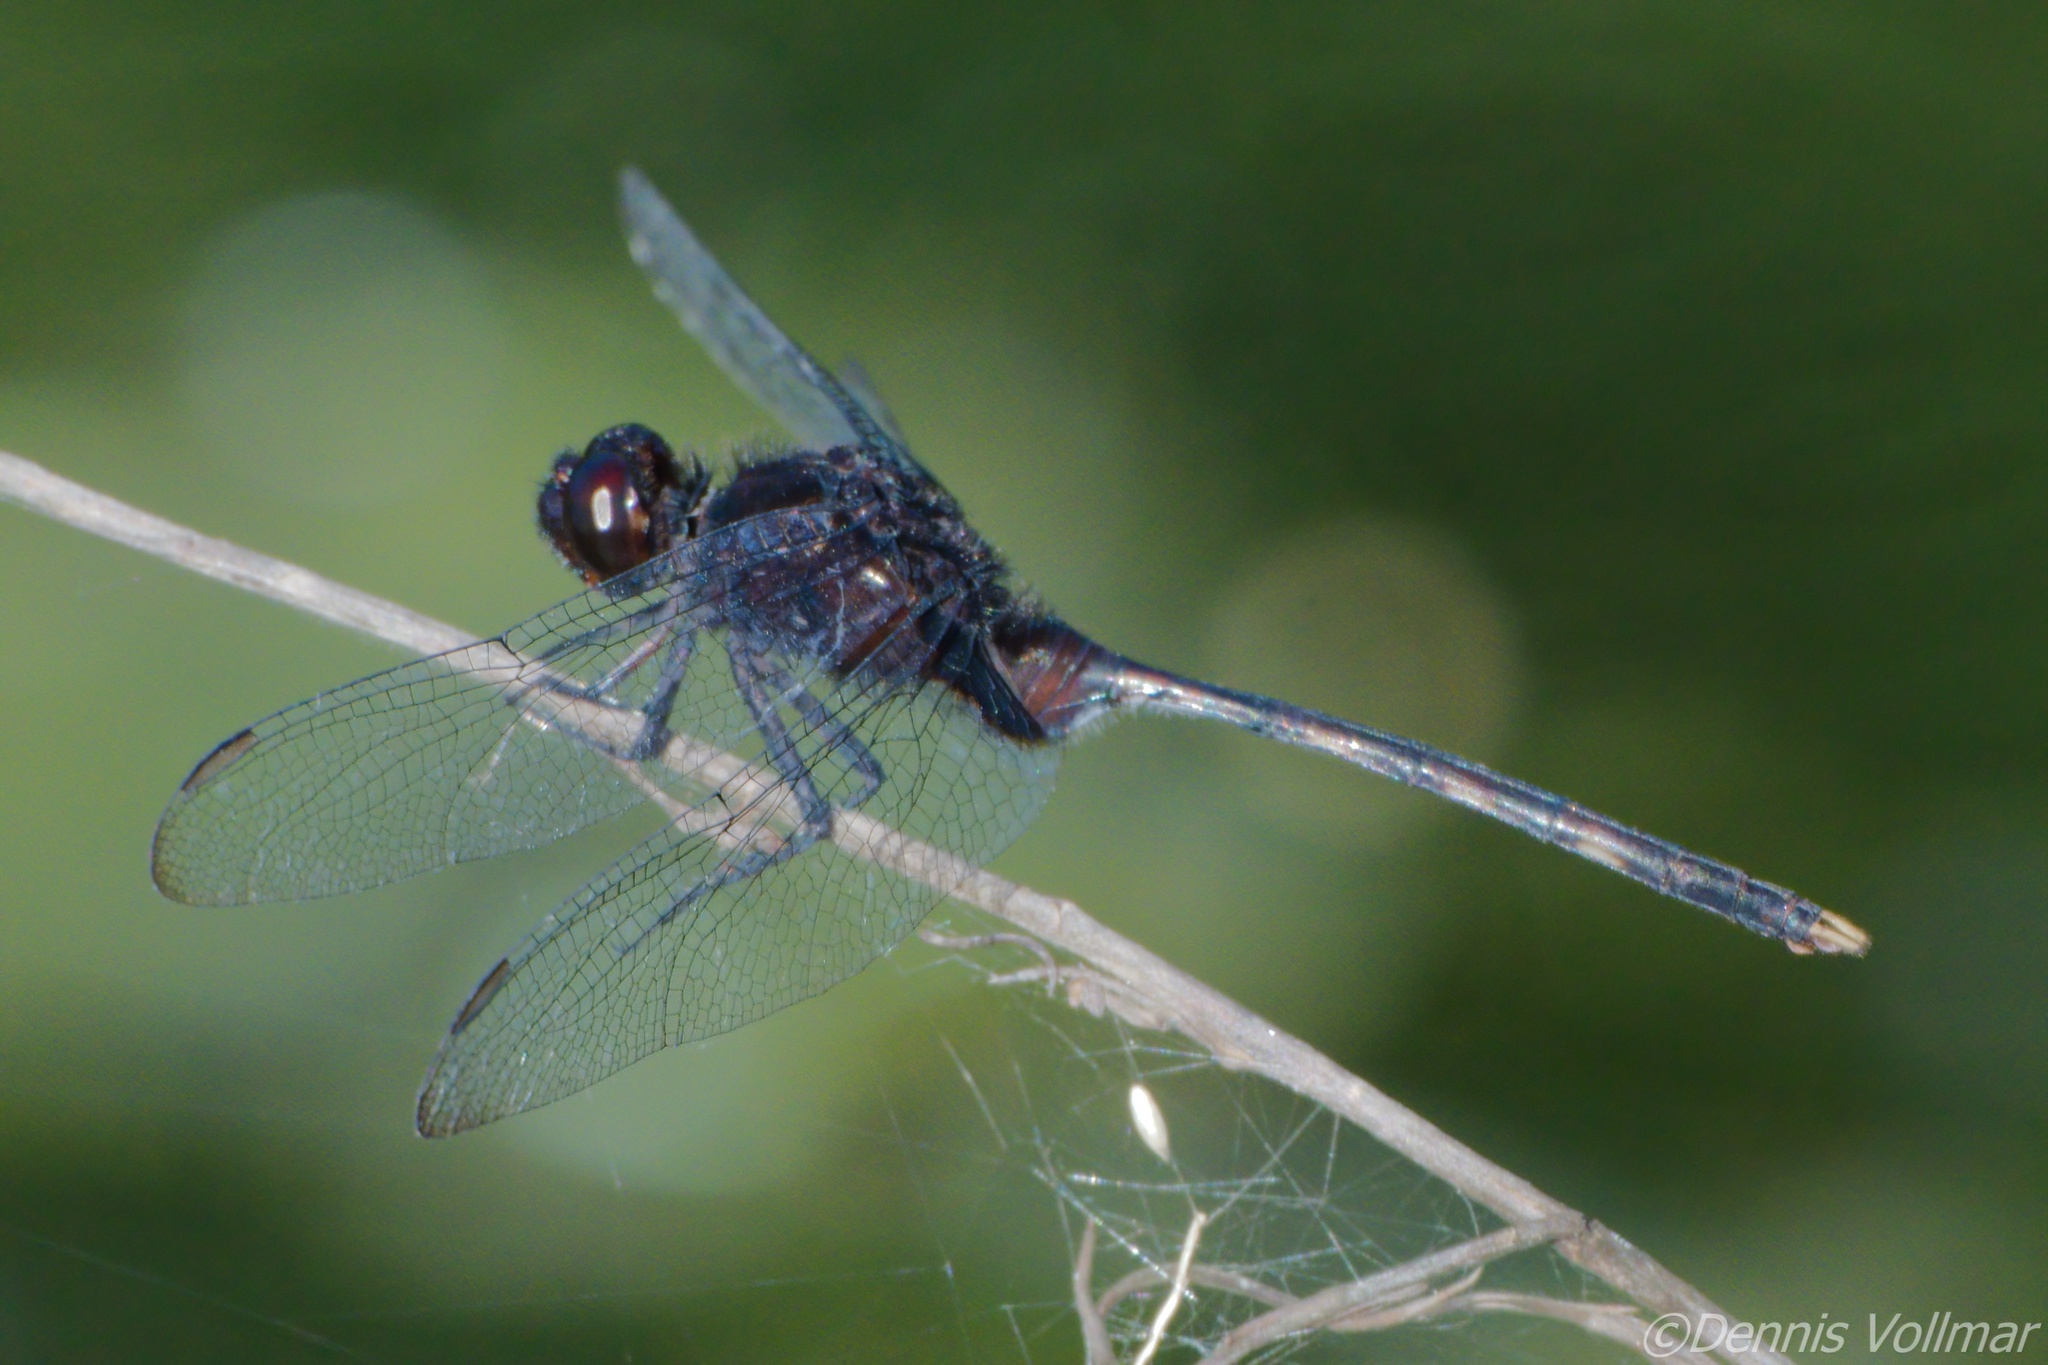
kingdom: Animalia
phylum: Arthropoda
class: Insecta
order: Odonata
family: Libellulidae
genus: Erythemis
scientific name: Erythemis plebeja
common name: Pin-tailed pondhawk
